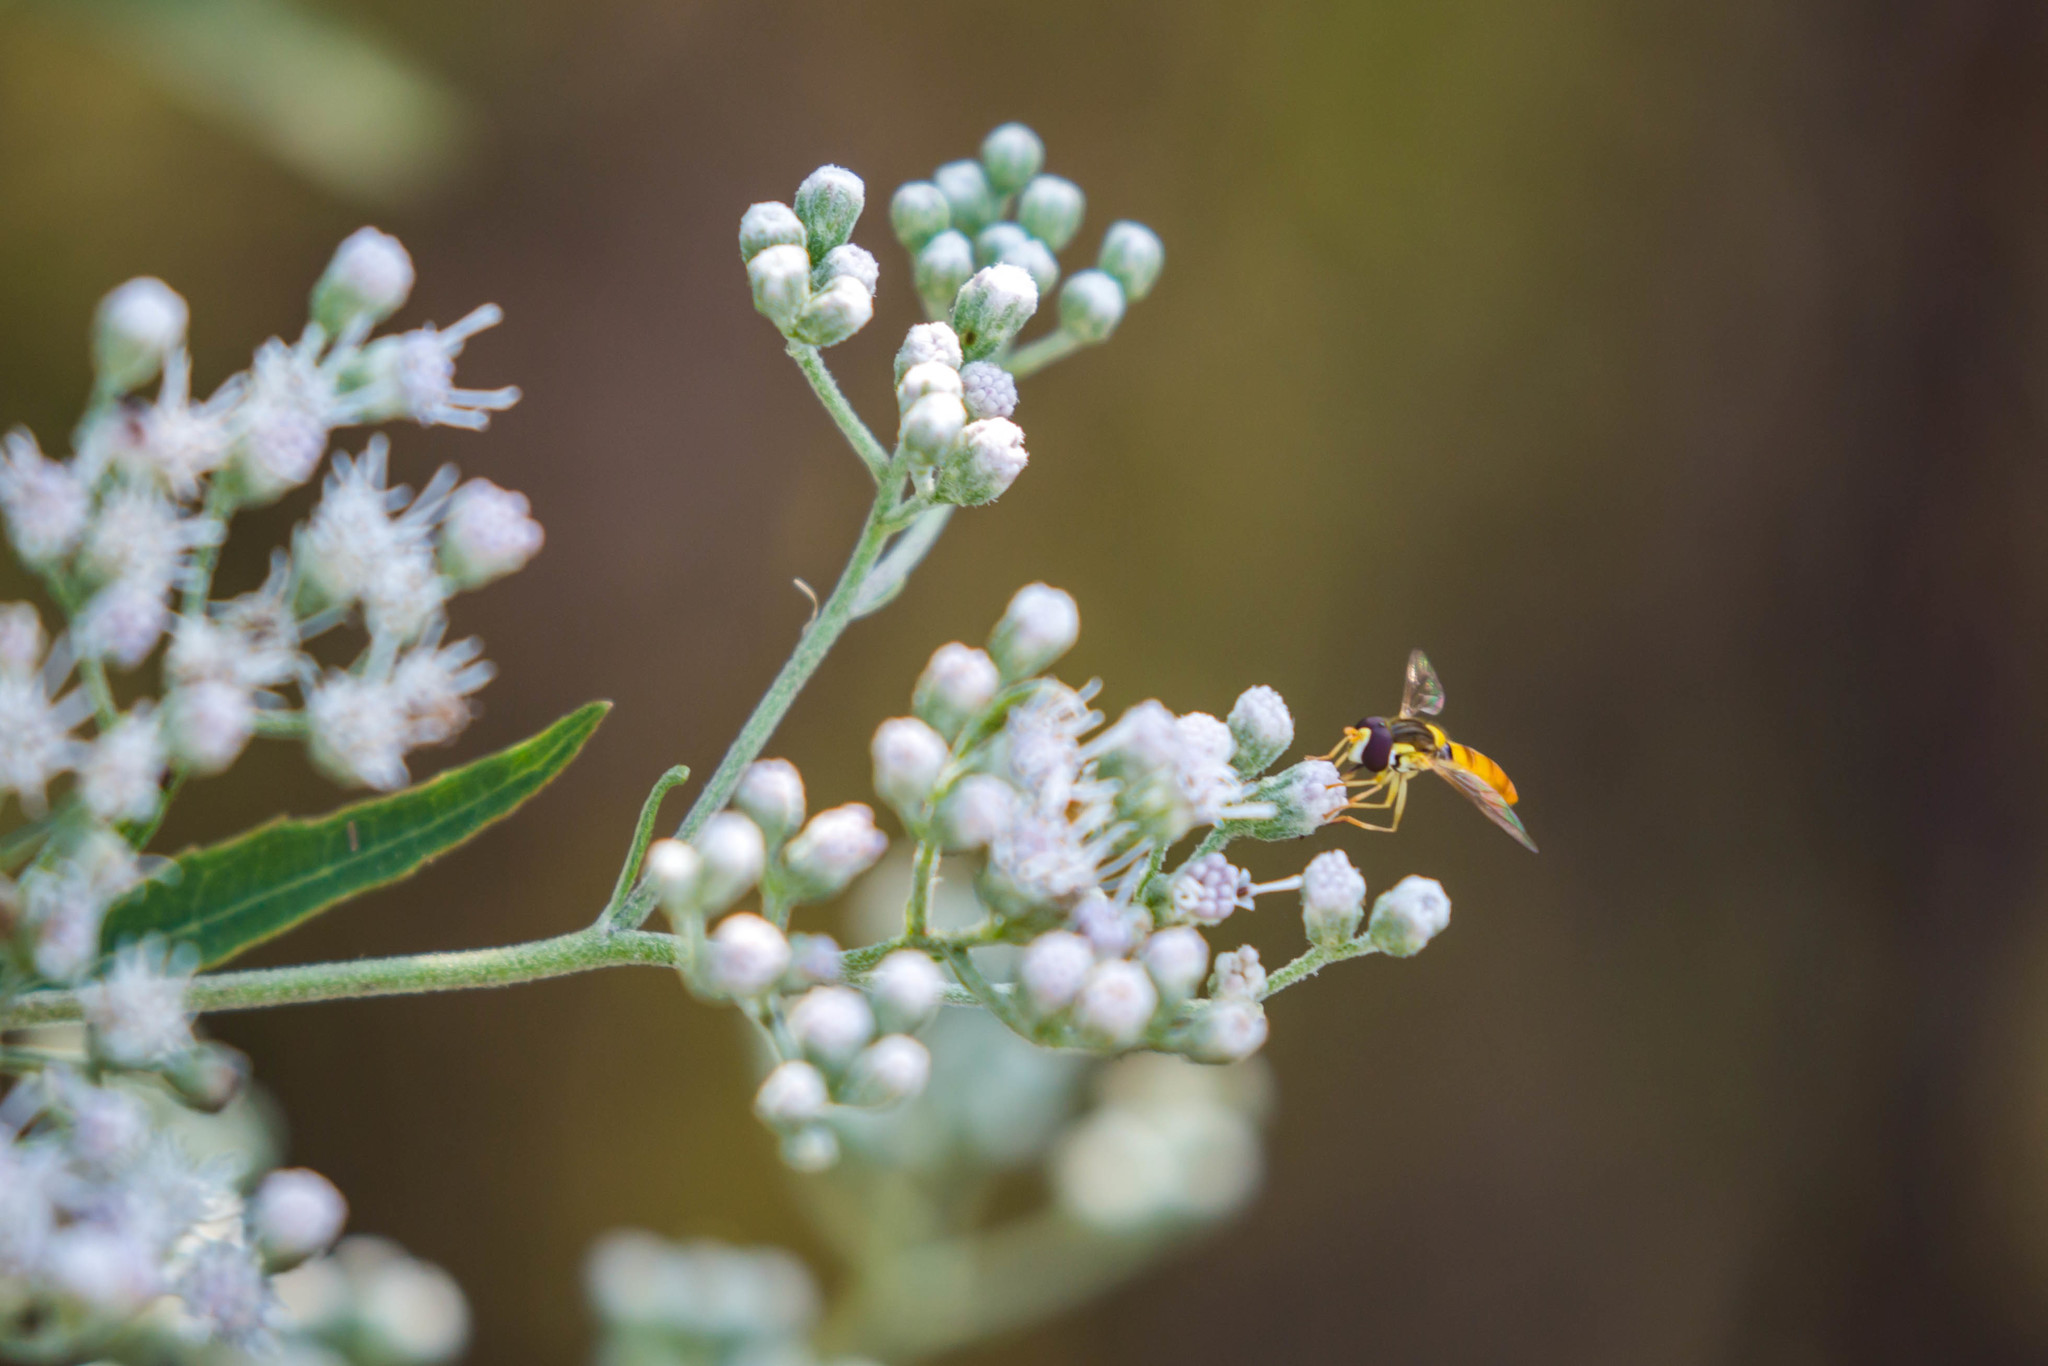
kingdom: Animalia
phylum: Arthropoda
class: Insecta
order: Diptera
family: Syrphidae
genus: Sphaerophoria
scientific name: Sphaerophoria contigua
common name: Tufted globetail
